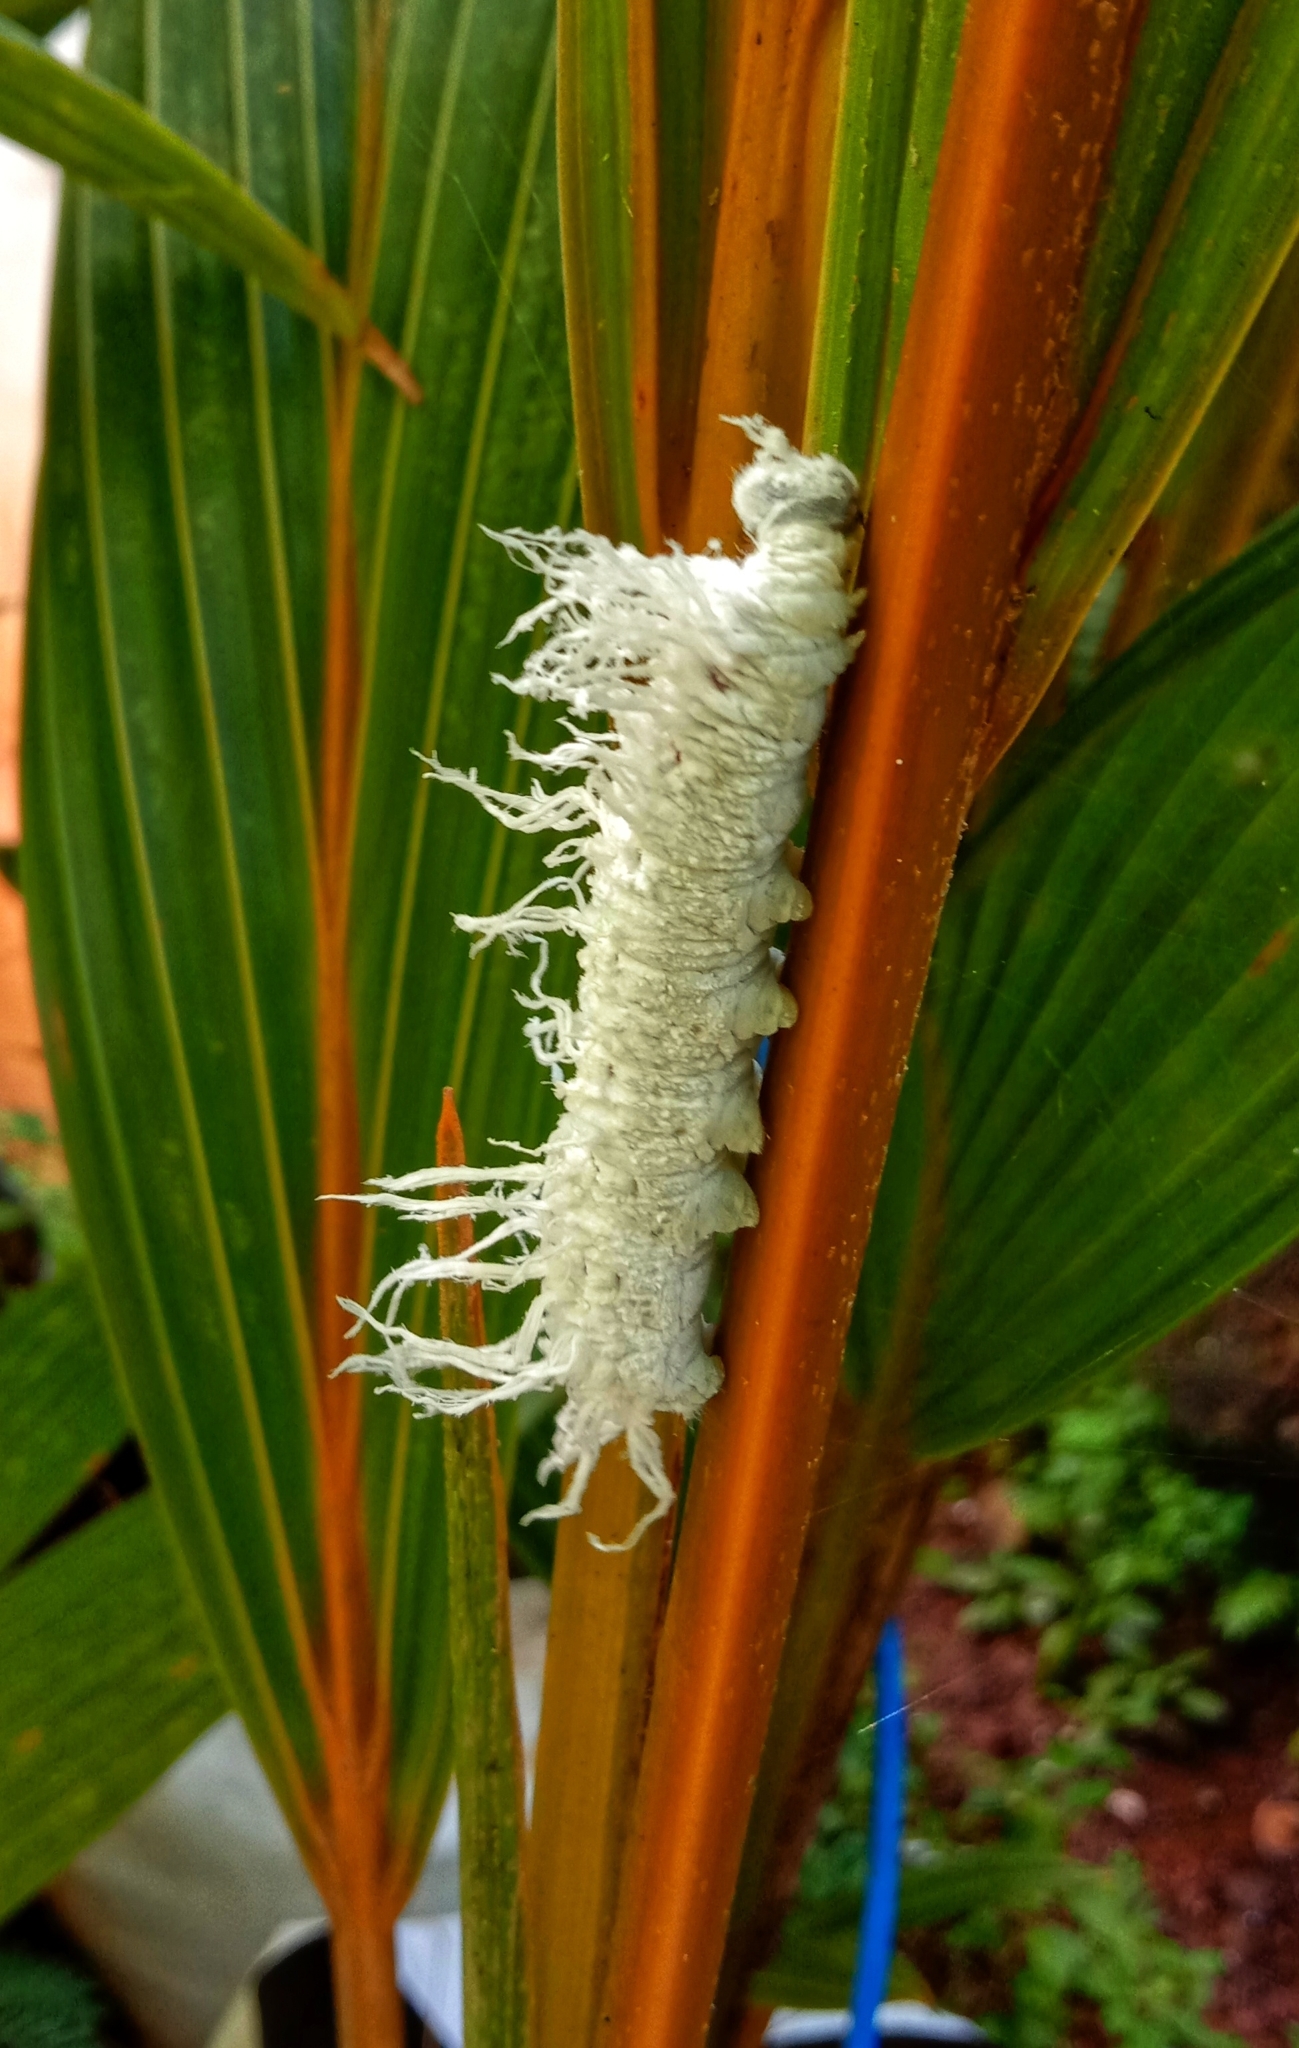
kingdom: Animalia
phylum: Arthropoda
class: Insecta
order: Lepidoptera
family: Hesperiidae
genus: Gangara
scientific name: Gangara thyrsis
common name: Giant redeye
